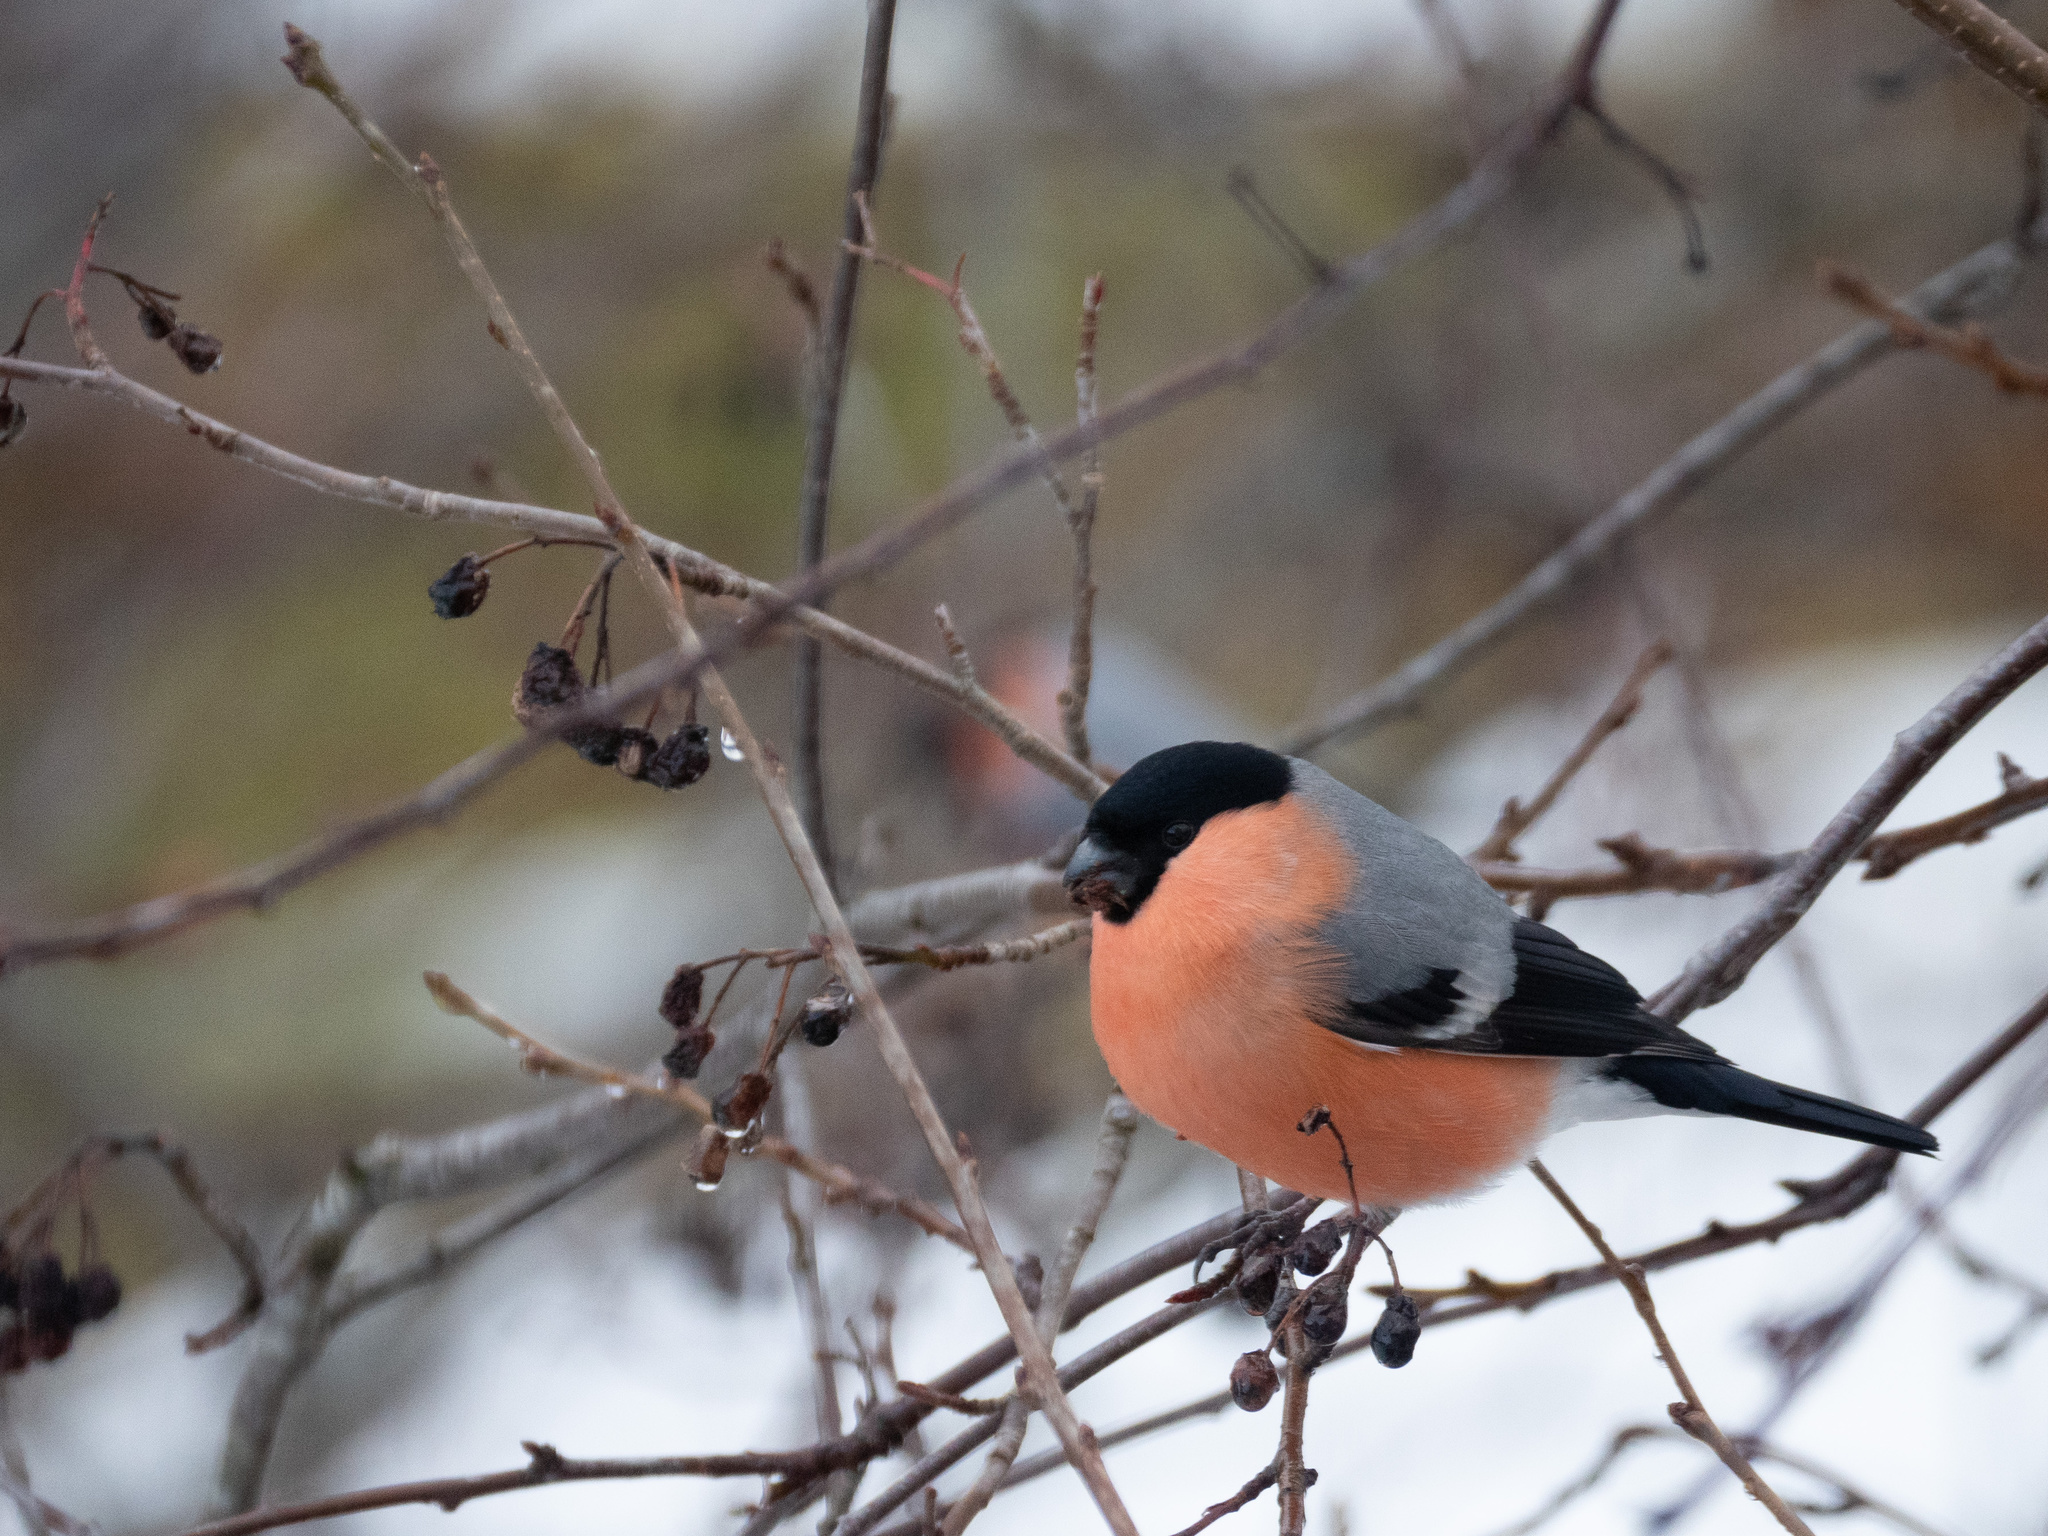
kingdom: Animalia
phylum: Chordata
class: Aves
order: Passeriformes
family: Fringillidae
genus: Pyrrhula
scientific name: Pyrrhula pyrrhula
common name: Eurasian bullfinch
